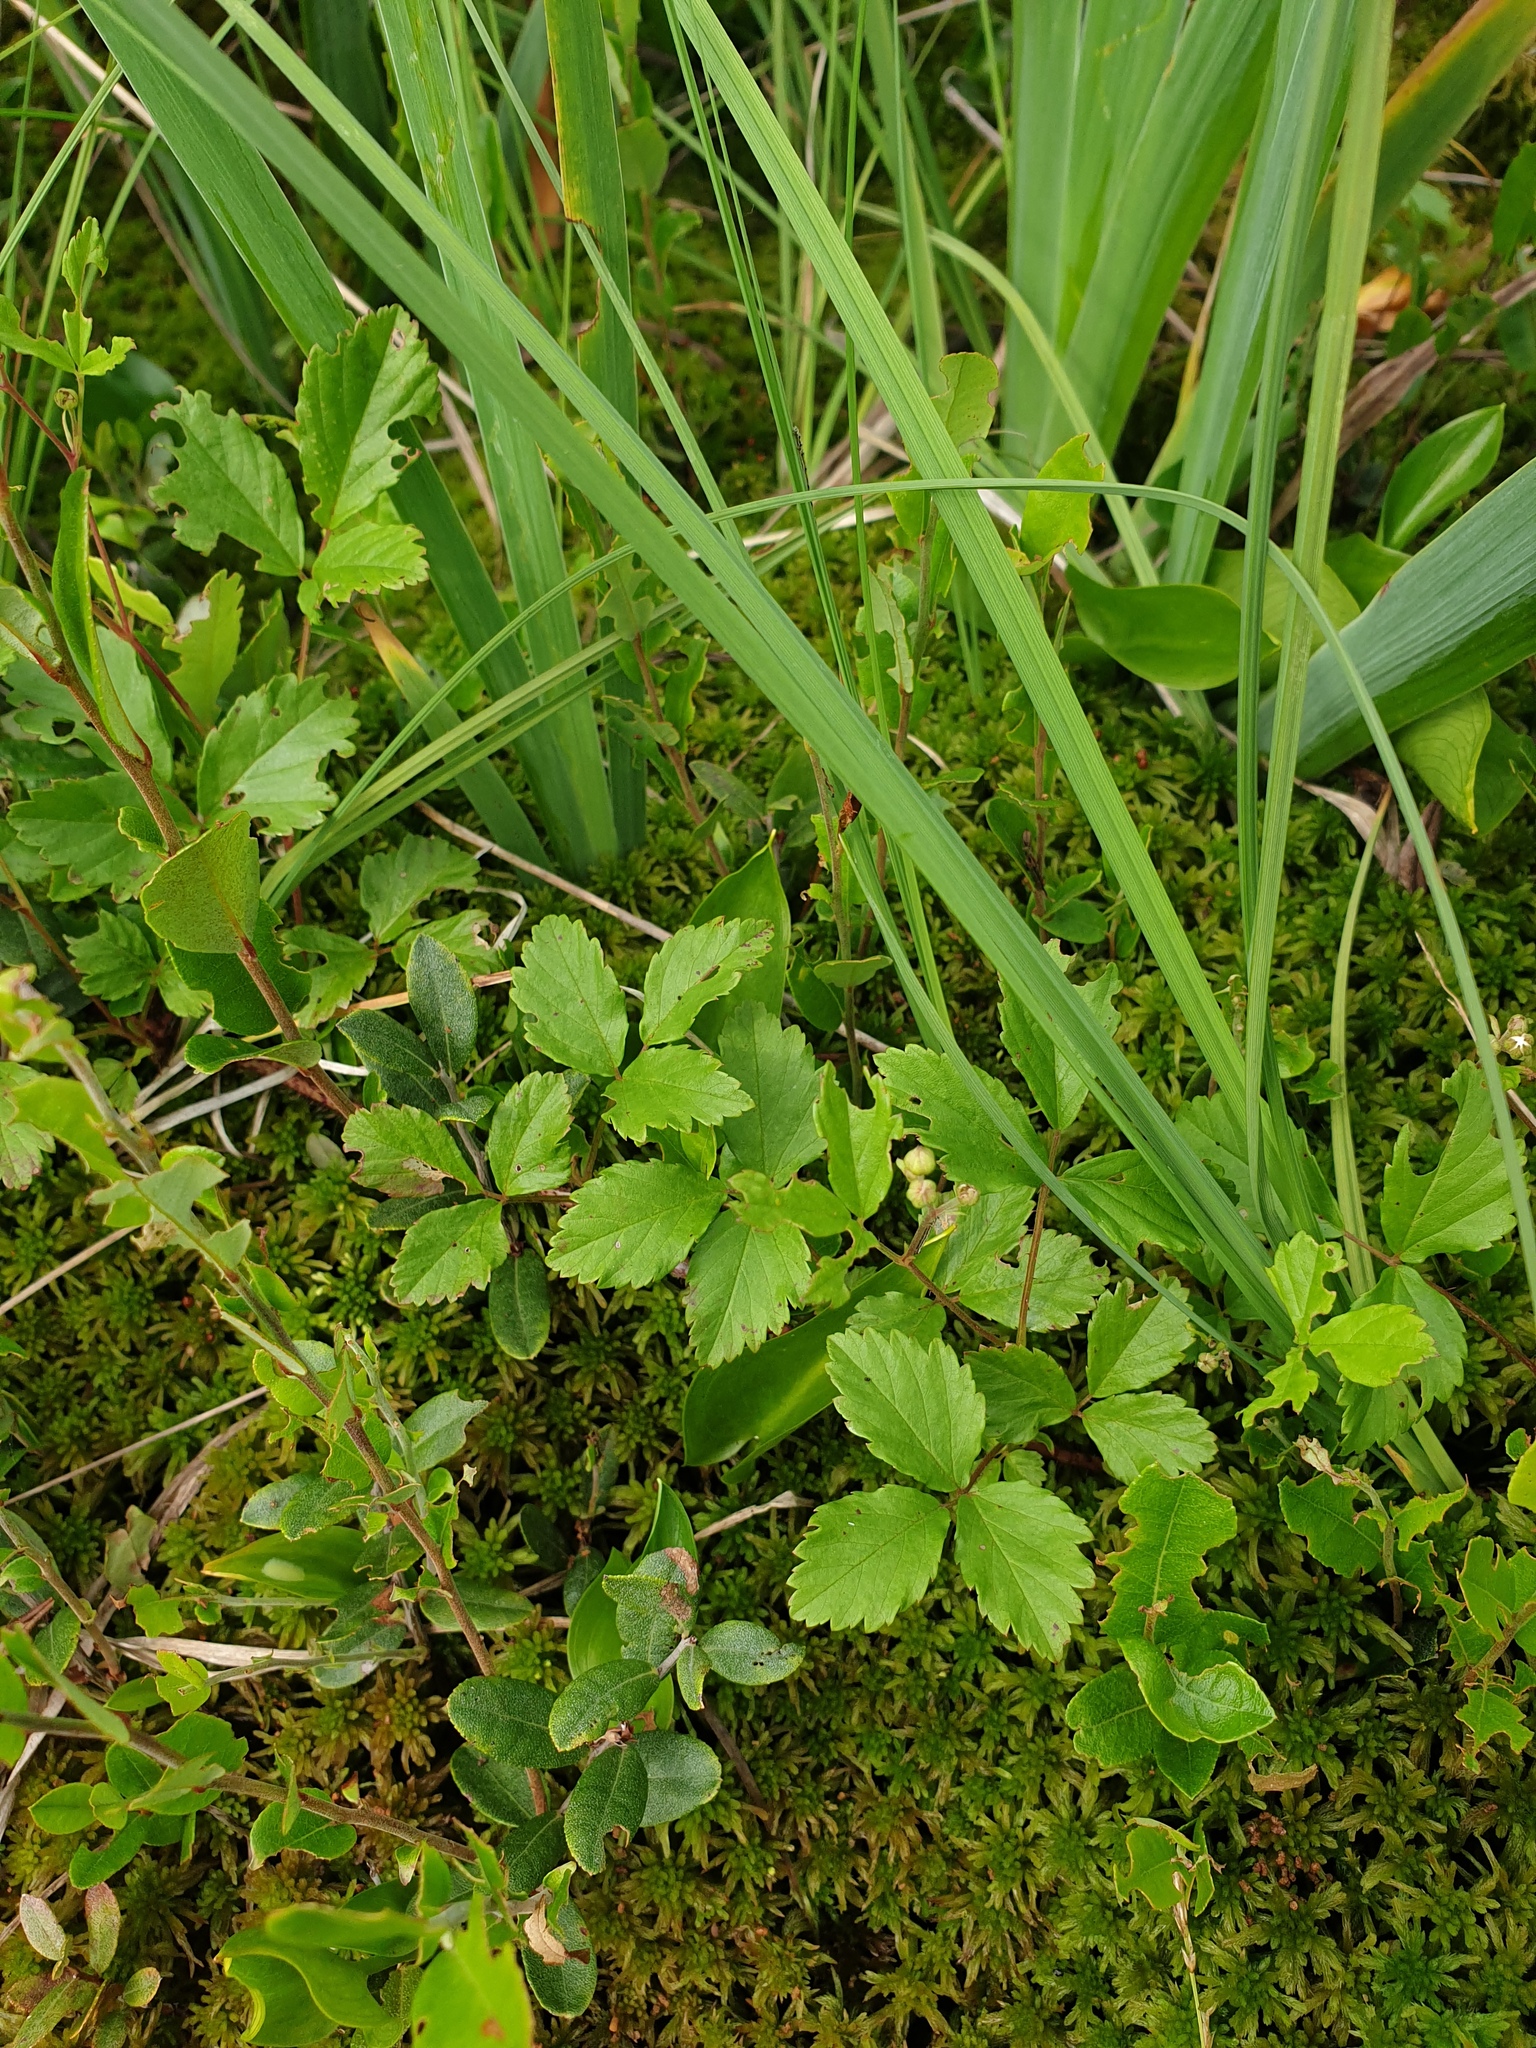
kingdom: Plantae
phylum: Tracheophyta
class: Magnoliopsida
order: Rosales
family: Rosaceae
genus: Rubus
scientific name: Rubus hispidus
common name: Running blackberry
